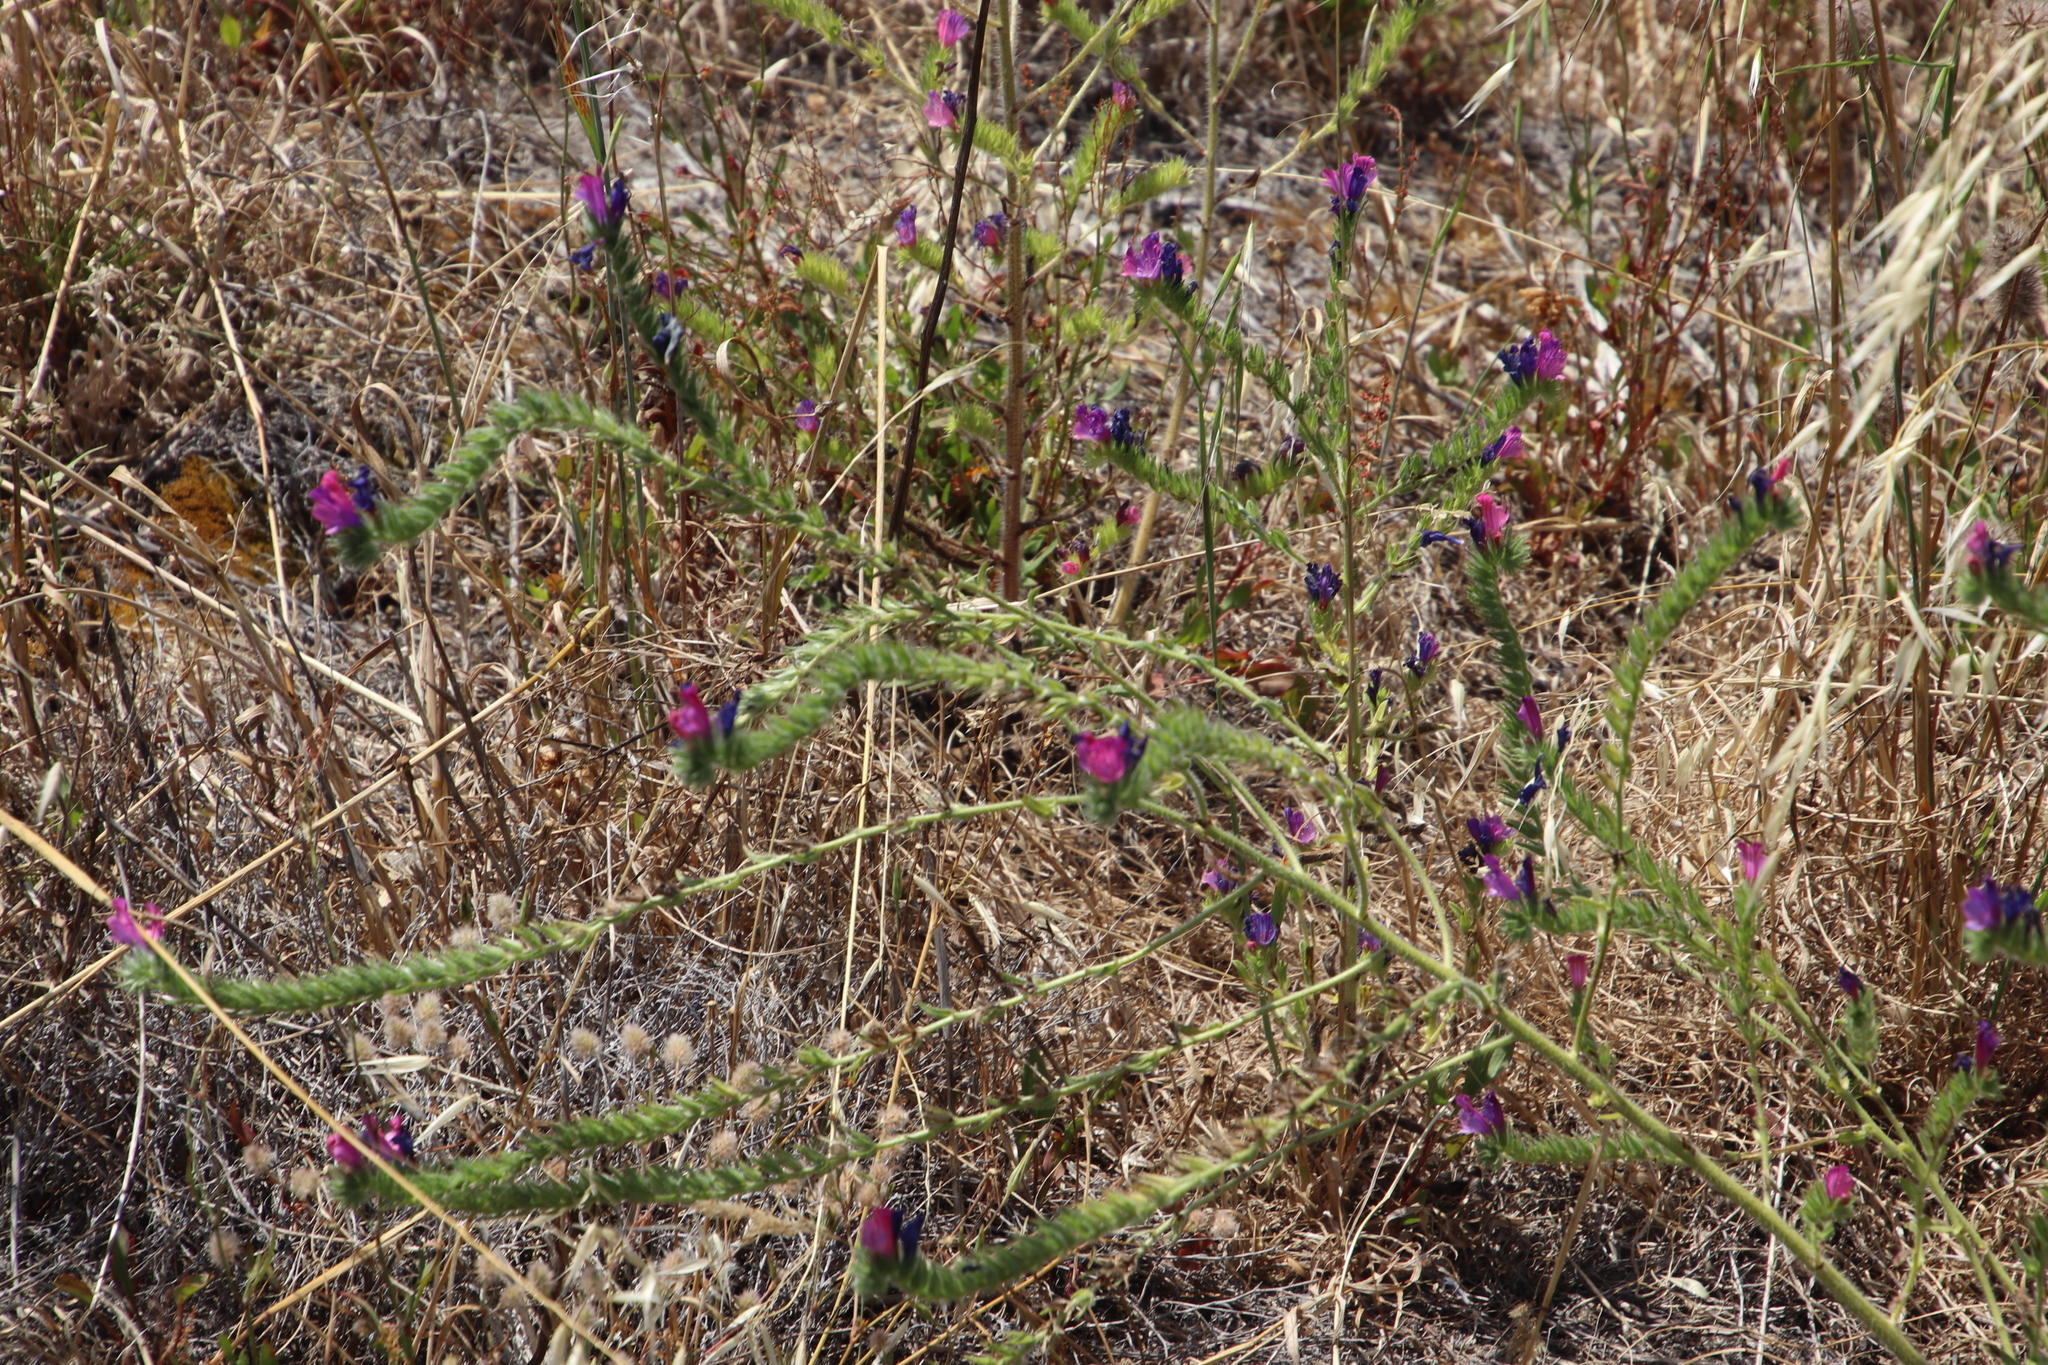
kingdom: Plantae
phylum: Tracheophyta
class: Magnoliopsida
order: Boraginales
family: Boraginaceae
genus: Echium
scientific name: Echium plantagineum
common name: Purple viper's-bugloss
